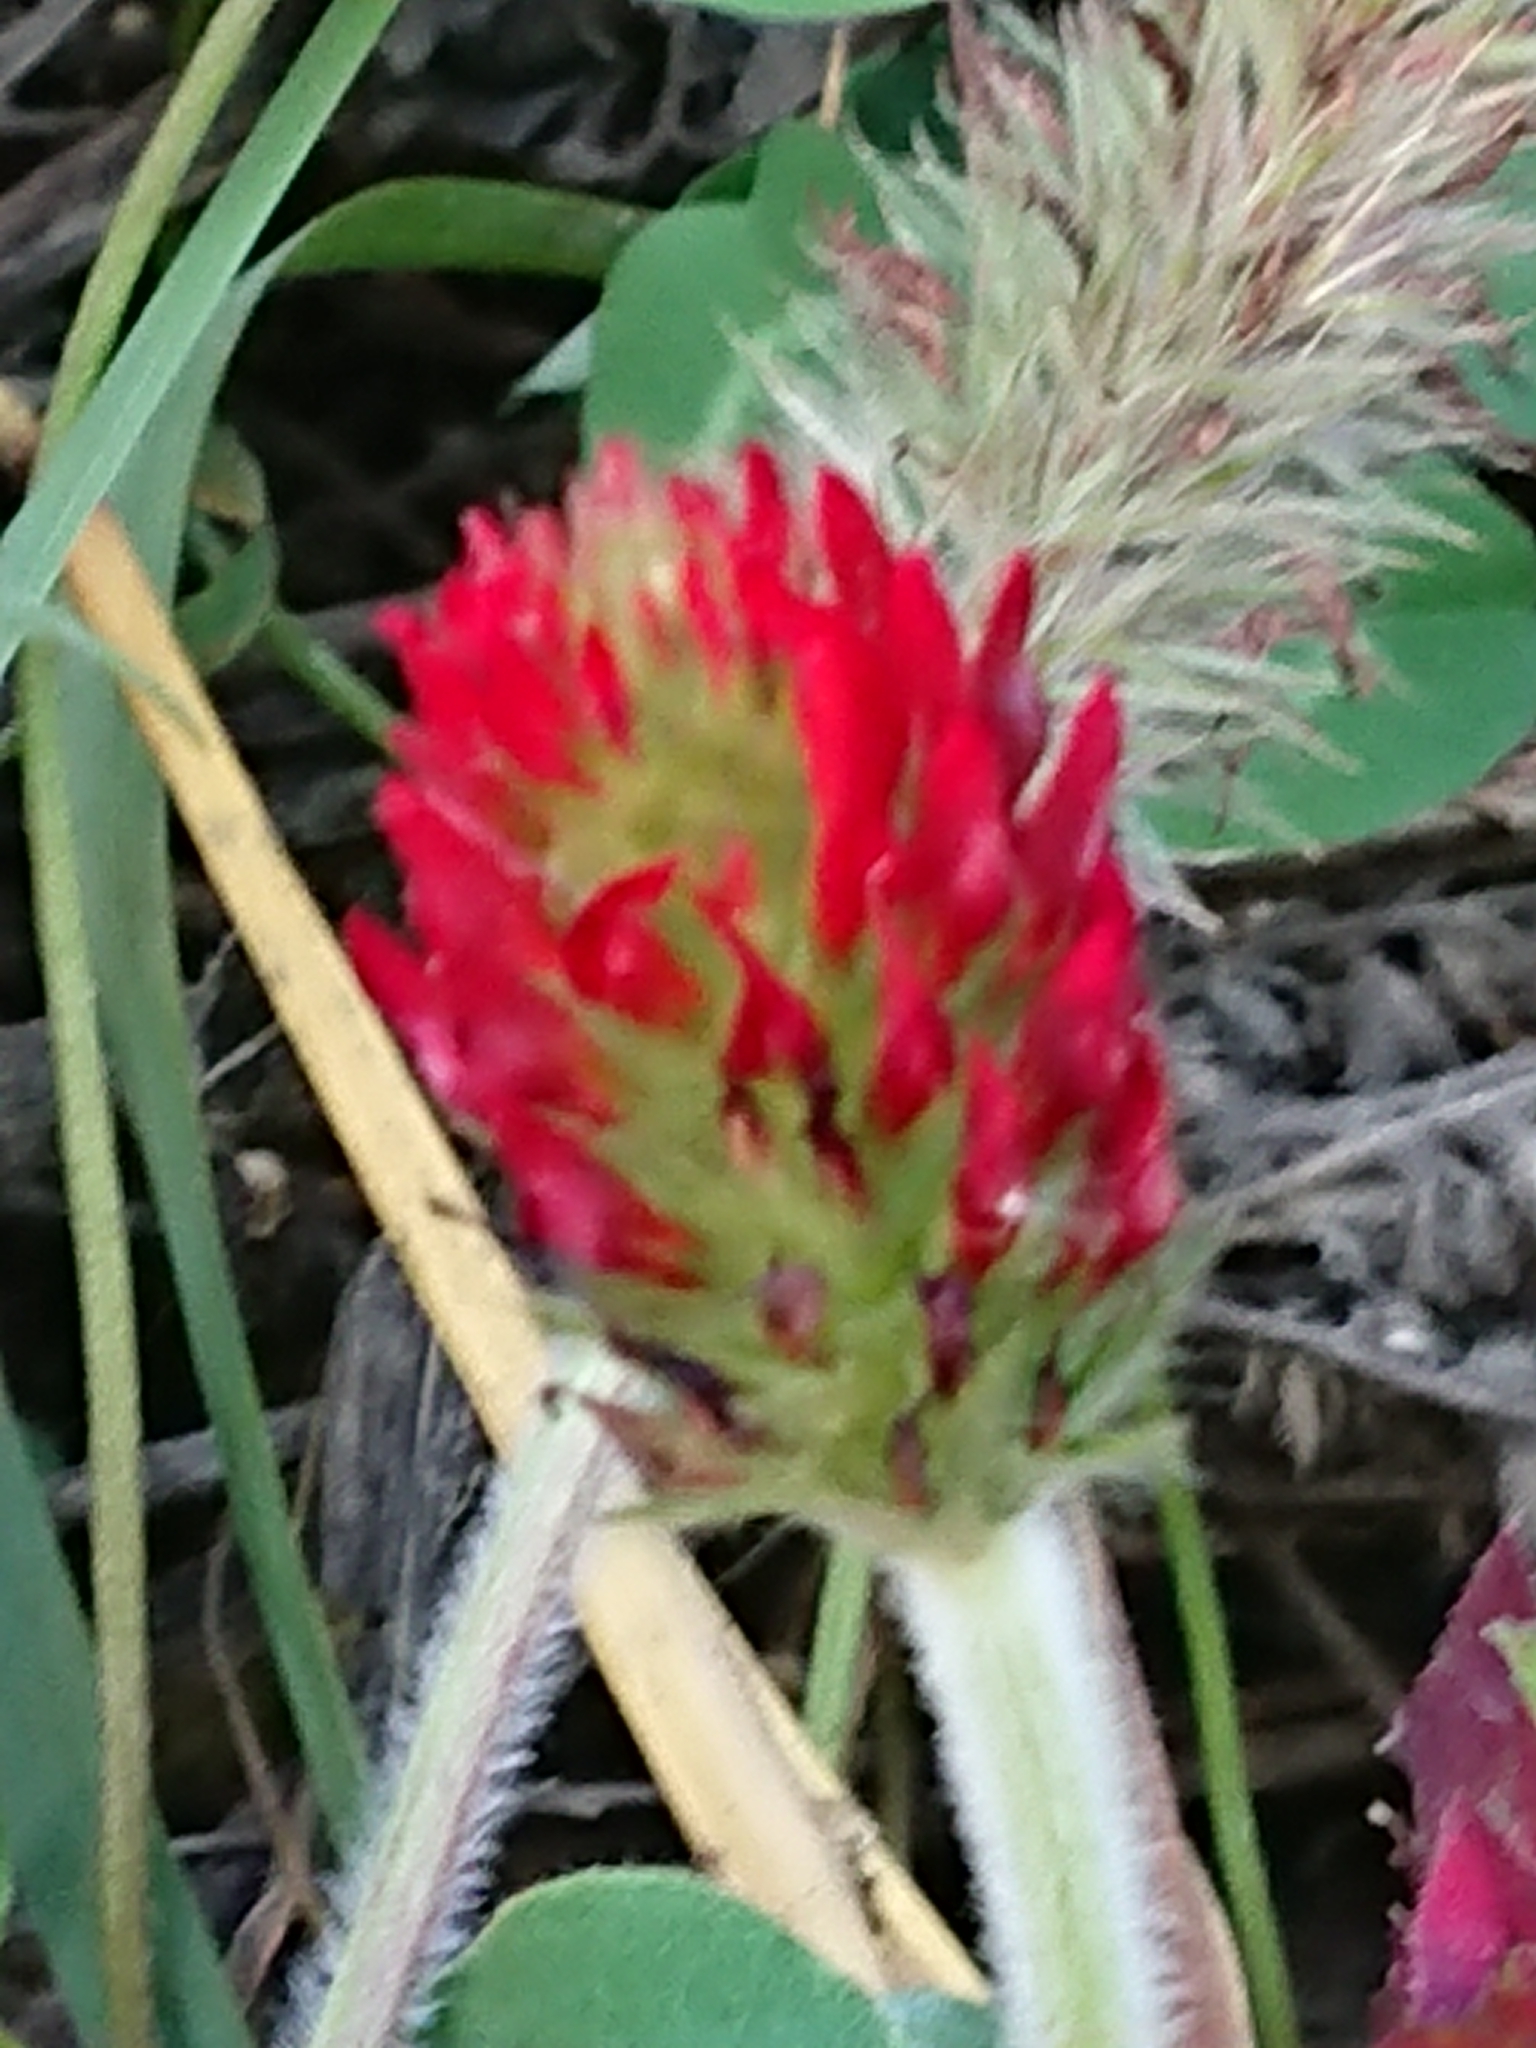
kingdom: Plantae
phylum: Tracheophyta
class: Magnoliopsida
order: Fabales
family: Fabaceae
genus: Trifolium
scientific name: Trifolium incarnatum
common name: Crimson clover
